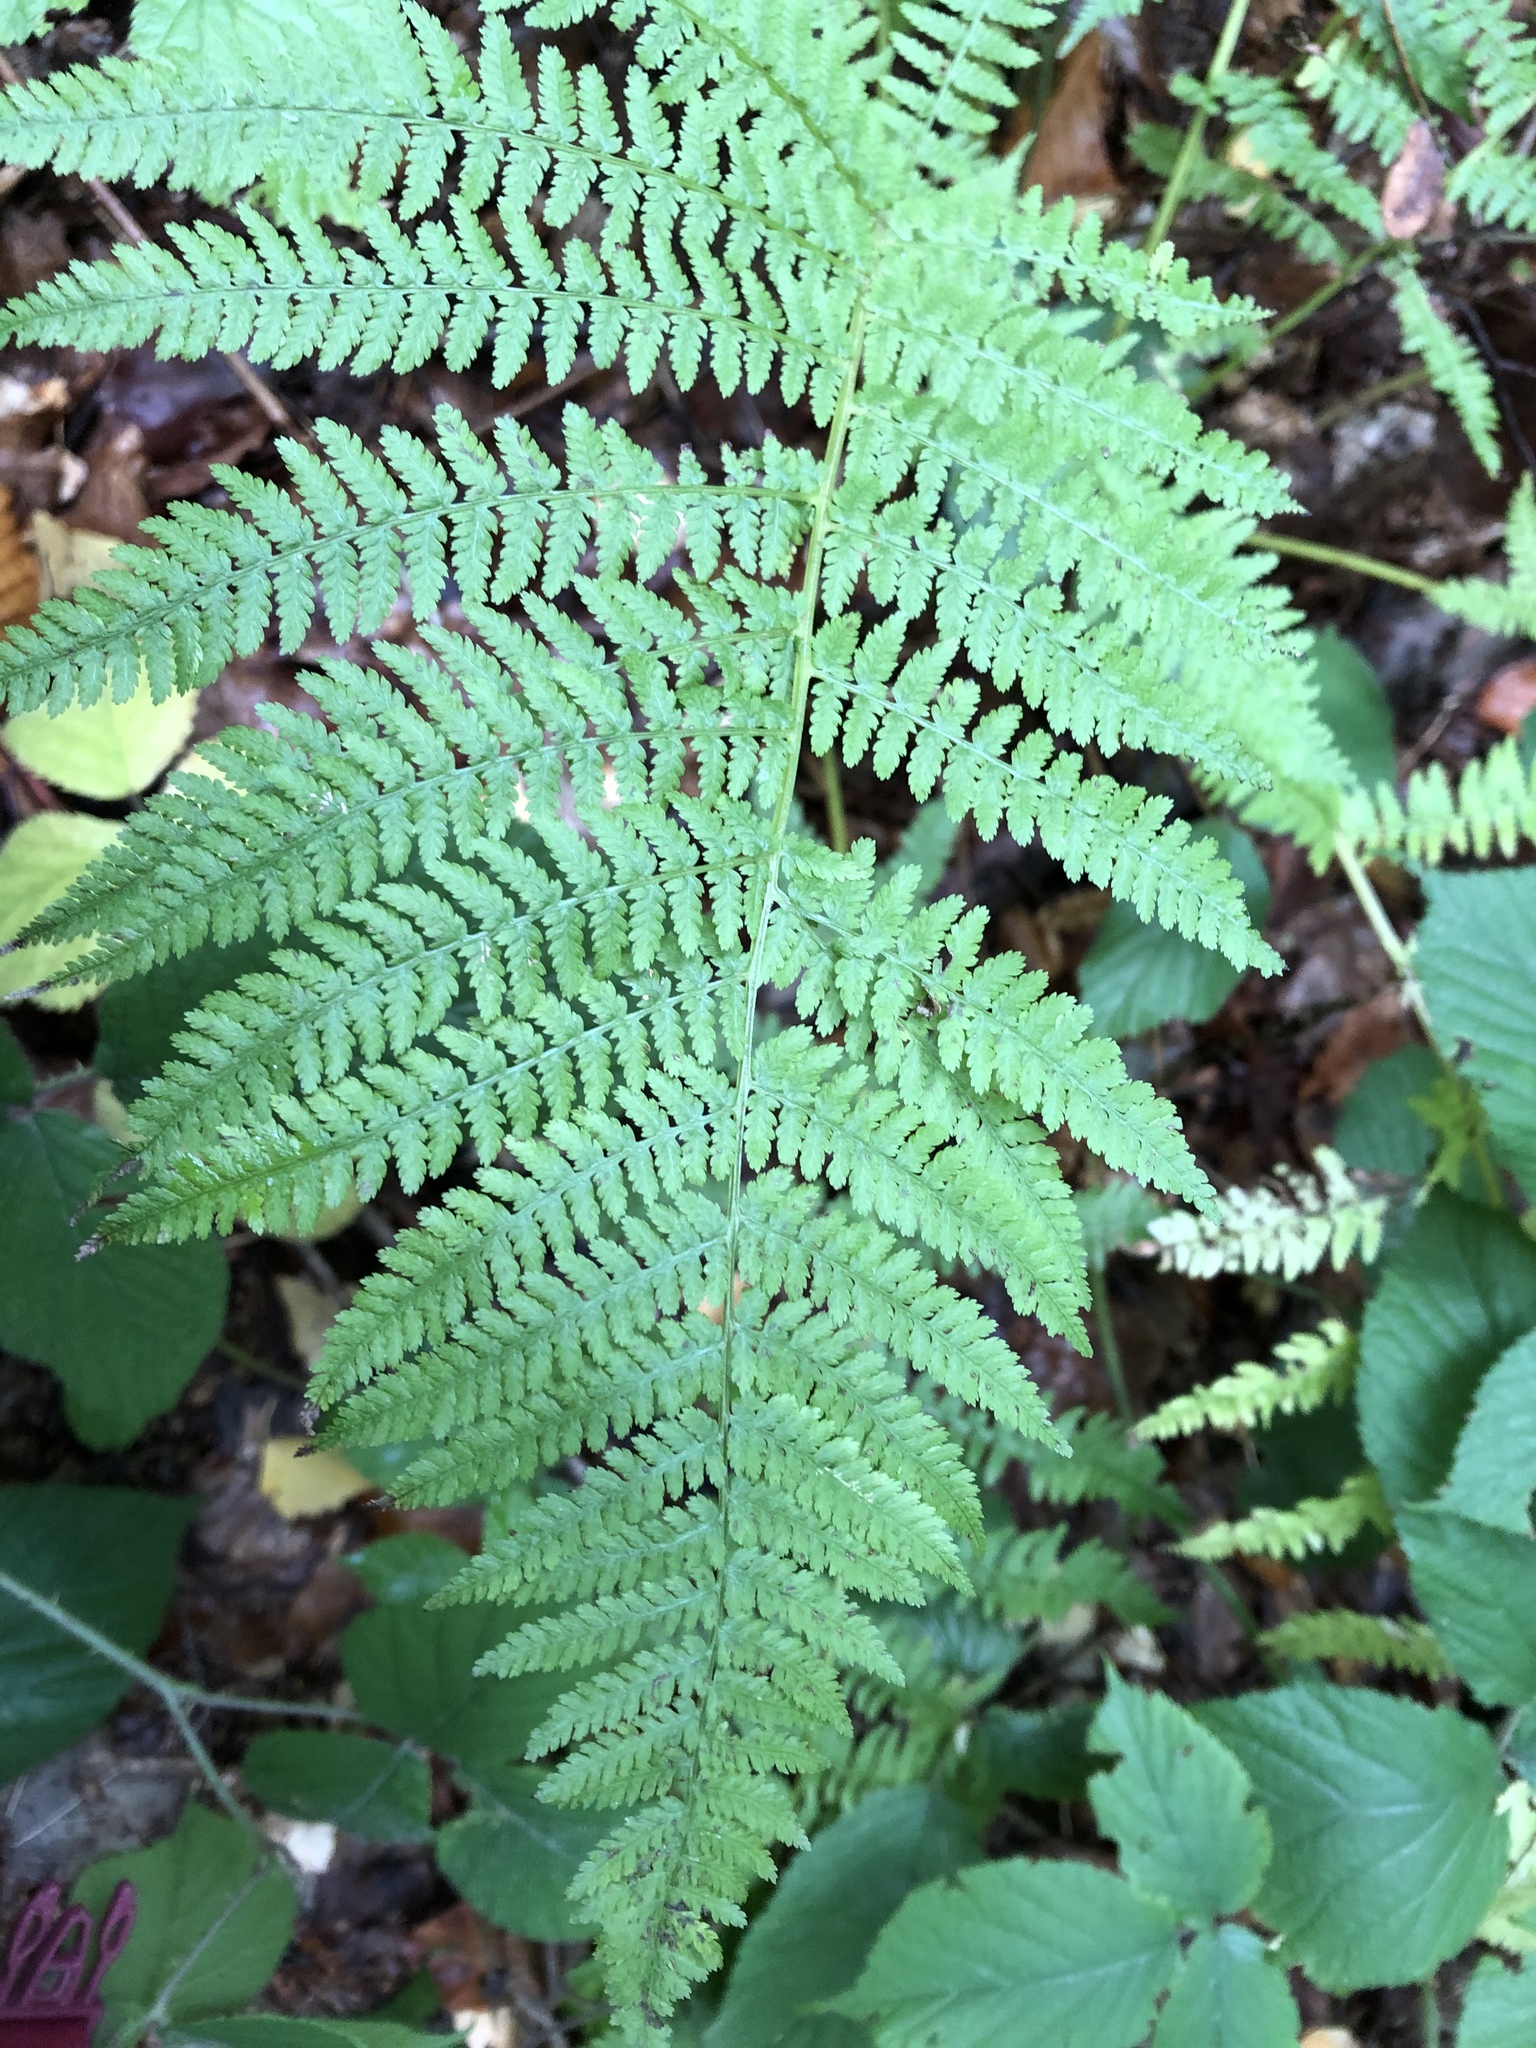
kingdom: Plantae
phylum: Tracheophyta
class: Polypodiopsida
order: Polypodiales
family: Athyriaceae
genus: Athyrium
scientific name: Athyrium filix-femina
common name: Lady fern
